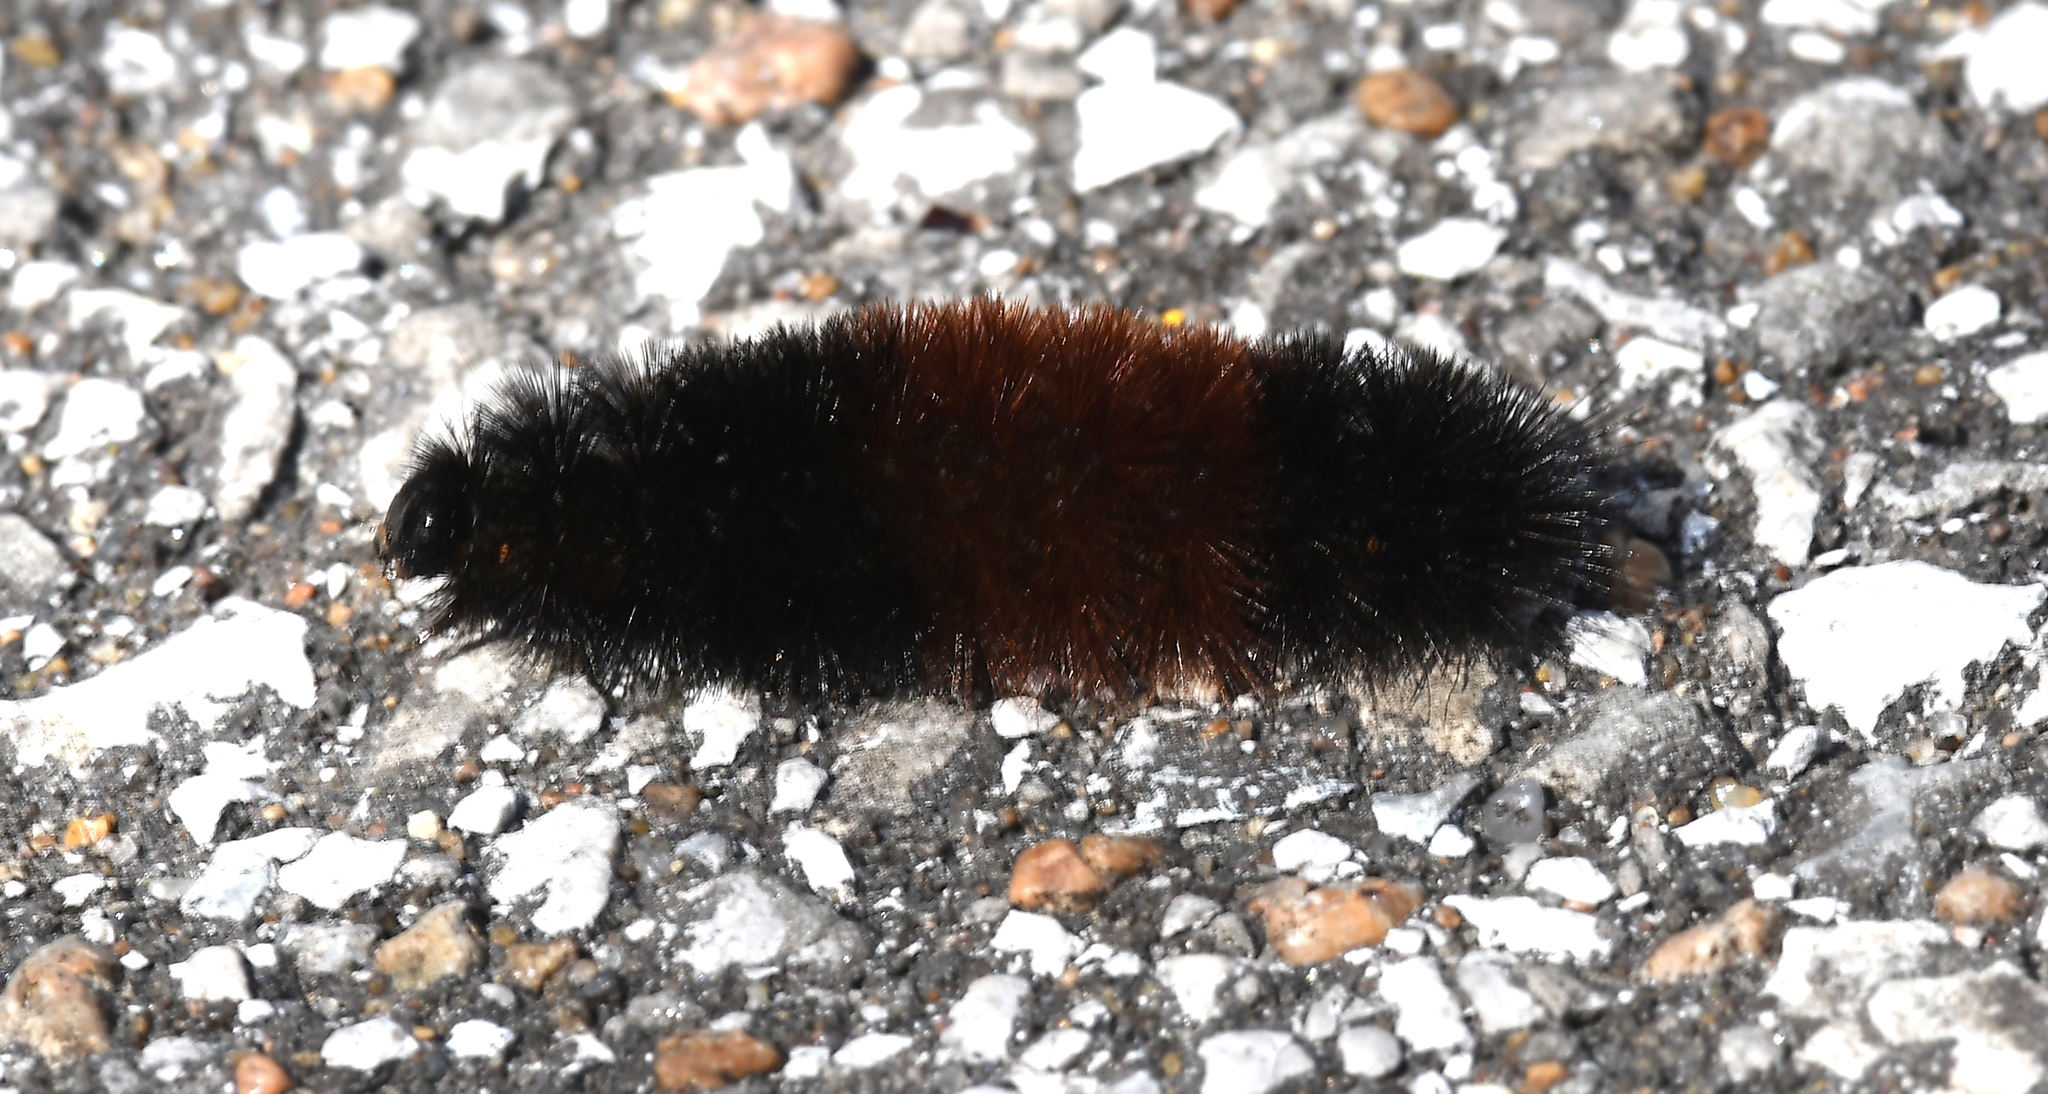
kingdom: Animalia
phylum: Arthropoda
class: Insecta
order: Lepidoptera
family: Erebidae
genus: Pyrrharctia
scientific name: Pyrrharctia isabella
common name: Isabella tiger moth
